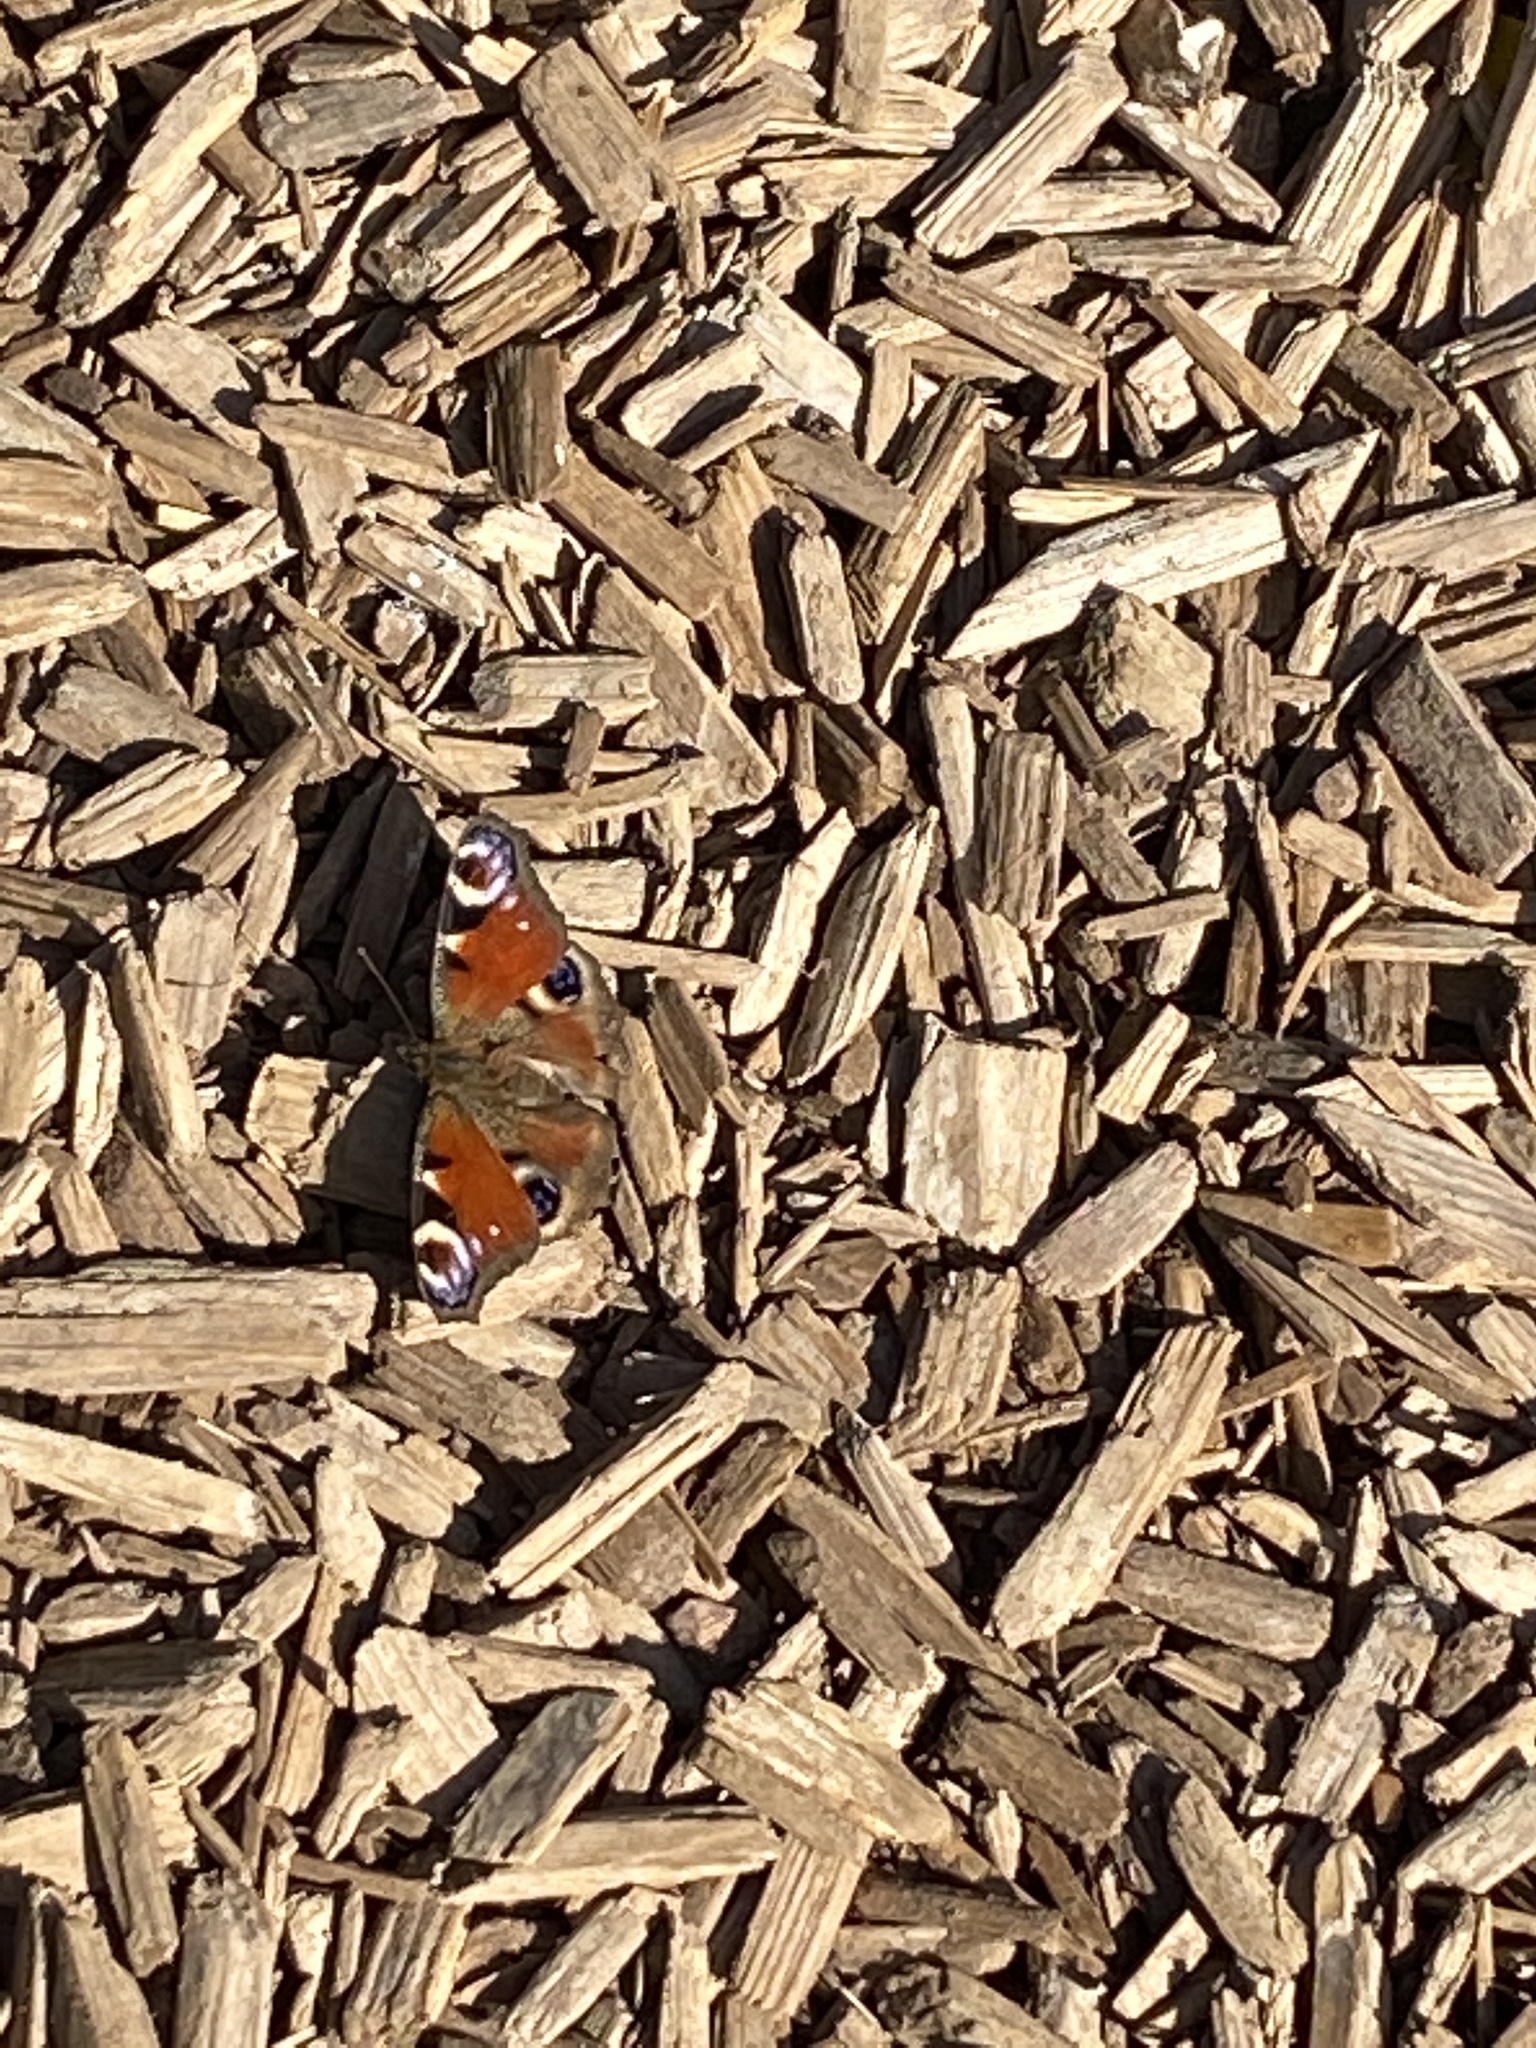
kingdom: Animalia
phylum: Arthropoda
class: Insecta
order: Lepidoptera
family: Nymphalidae
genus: Aglais
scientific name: Aglais io
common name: Peacock
